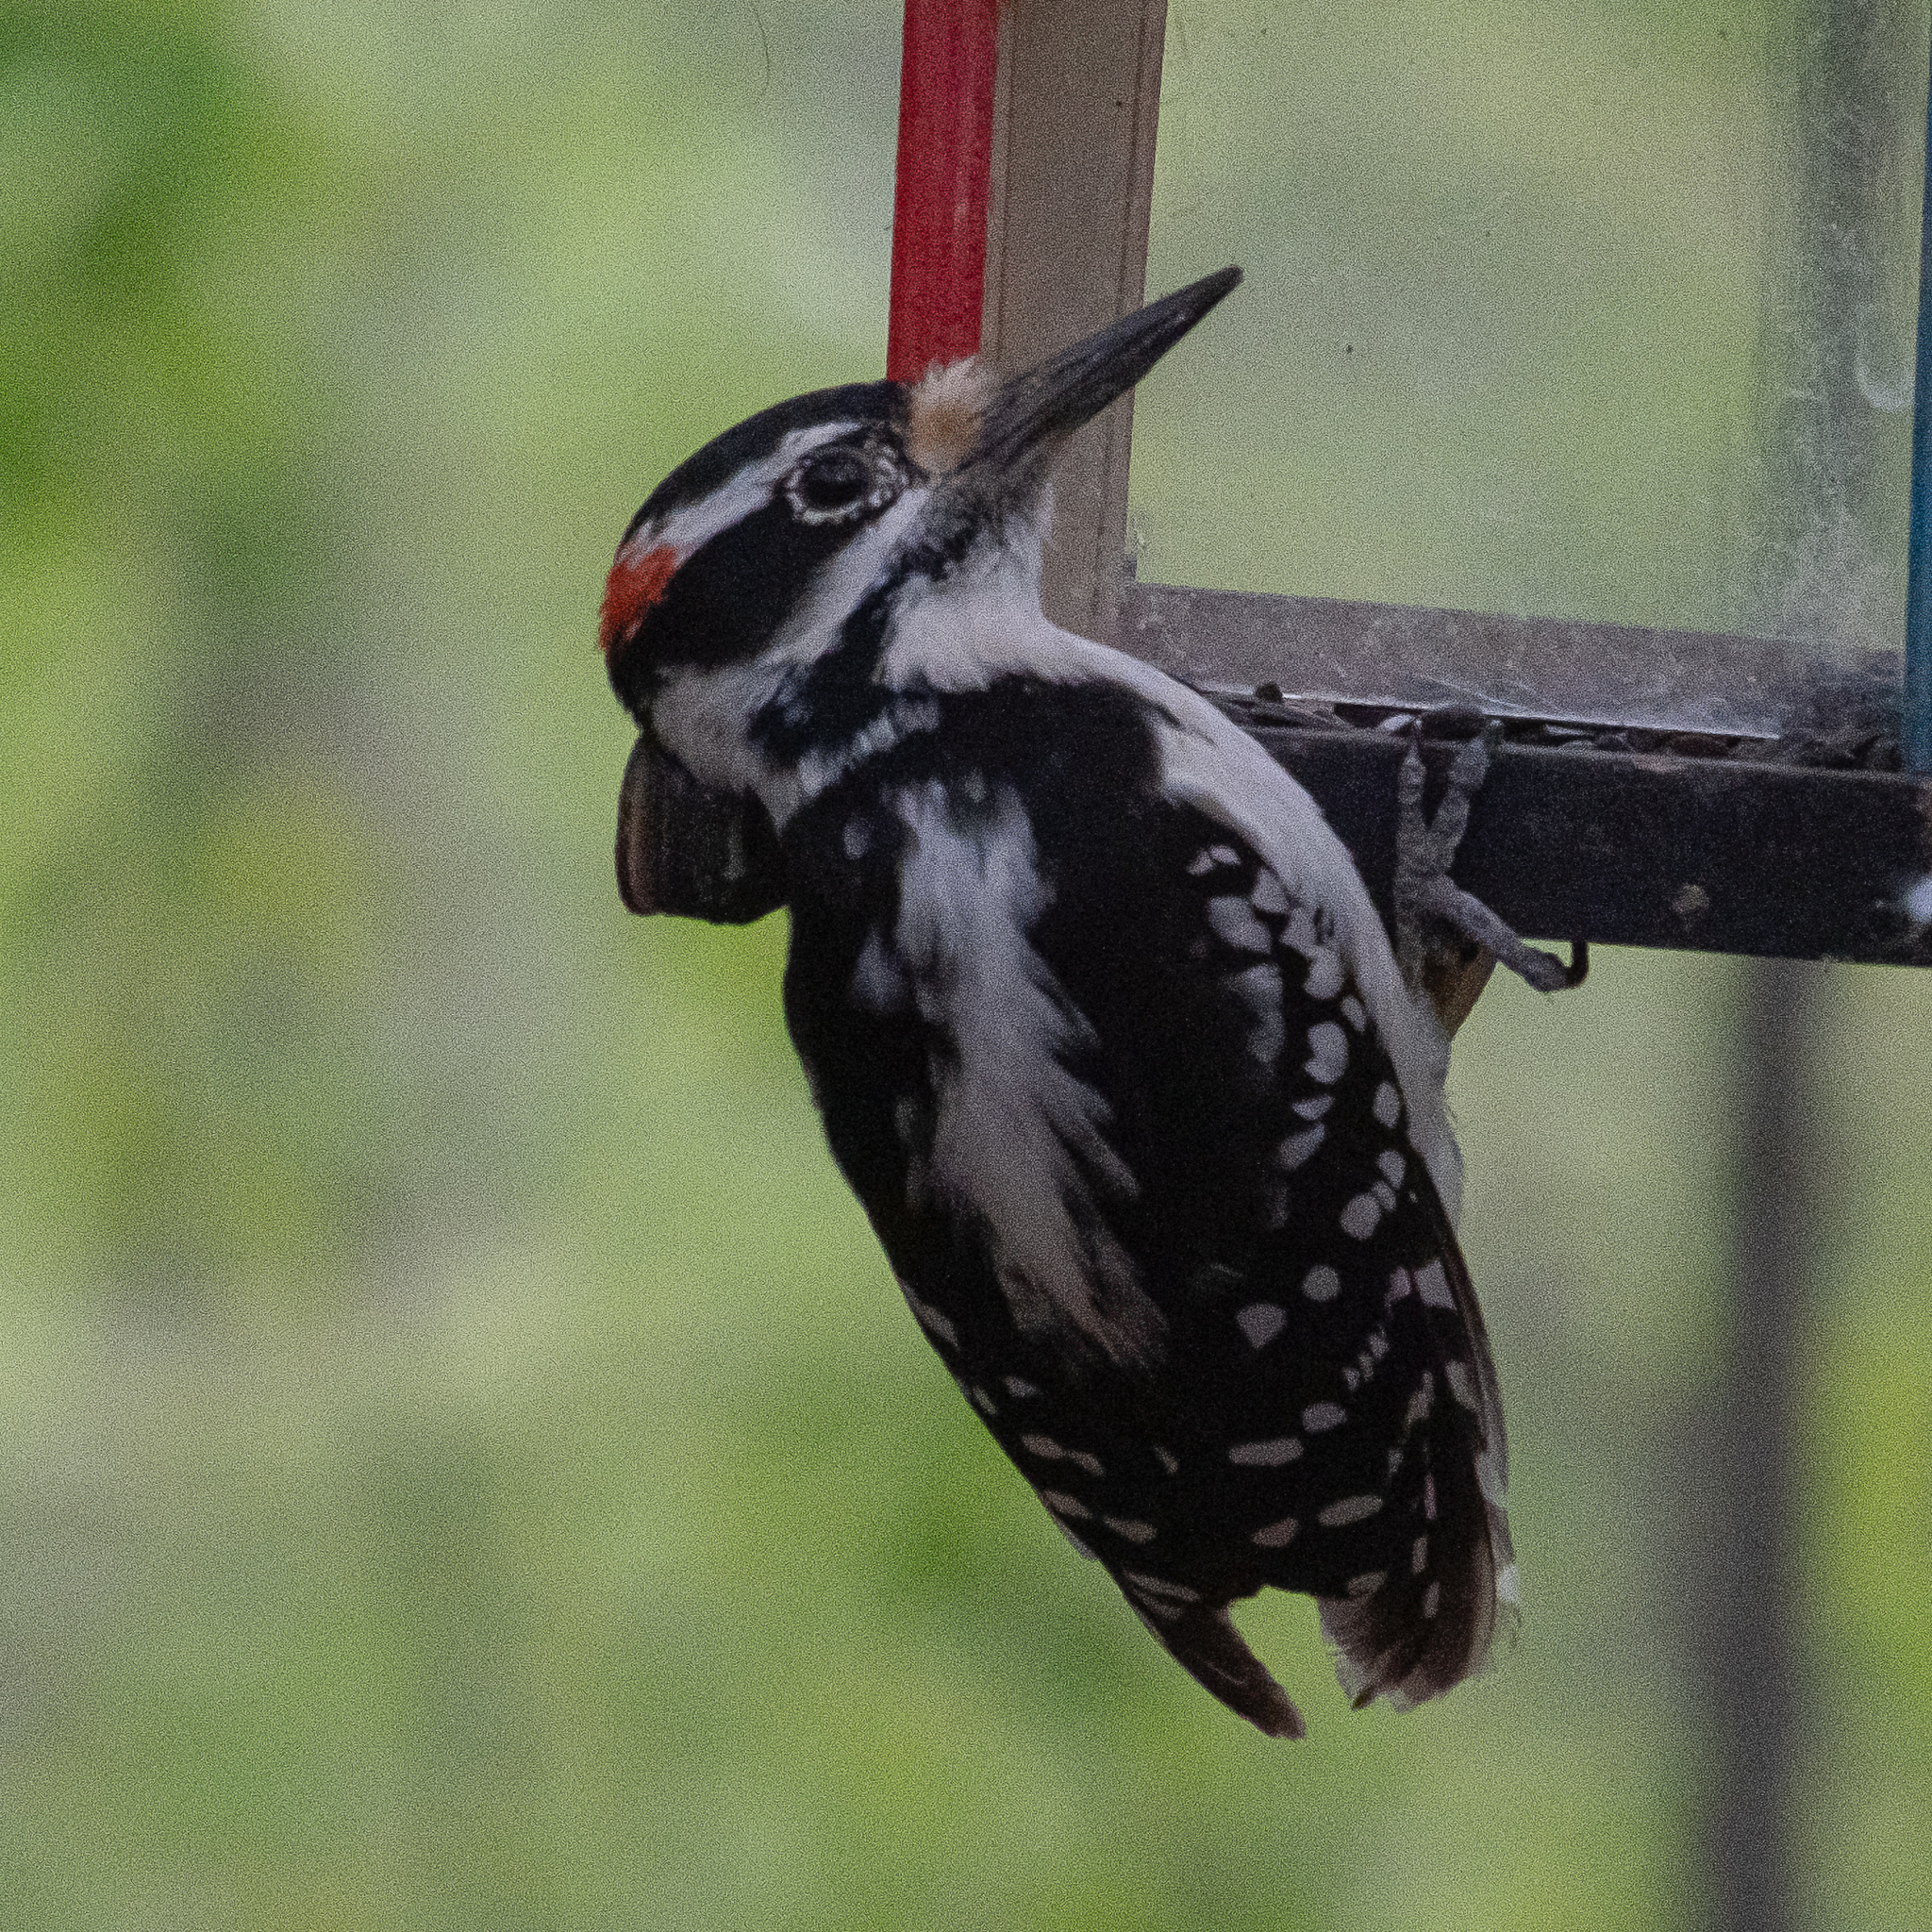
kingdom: Animalia
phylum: Chordata
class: Aves
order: Piciformes
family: Picidae
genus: Leuconotopicus
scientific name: Leuconotopicus villosus
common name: Hairy woodpecker
